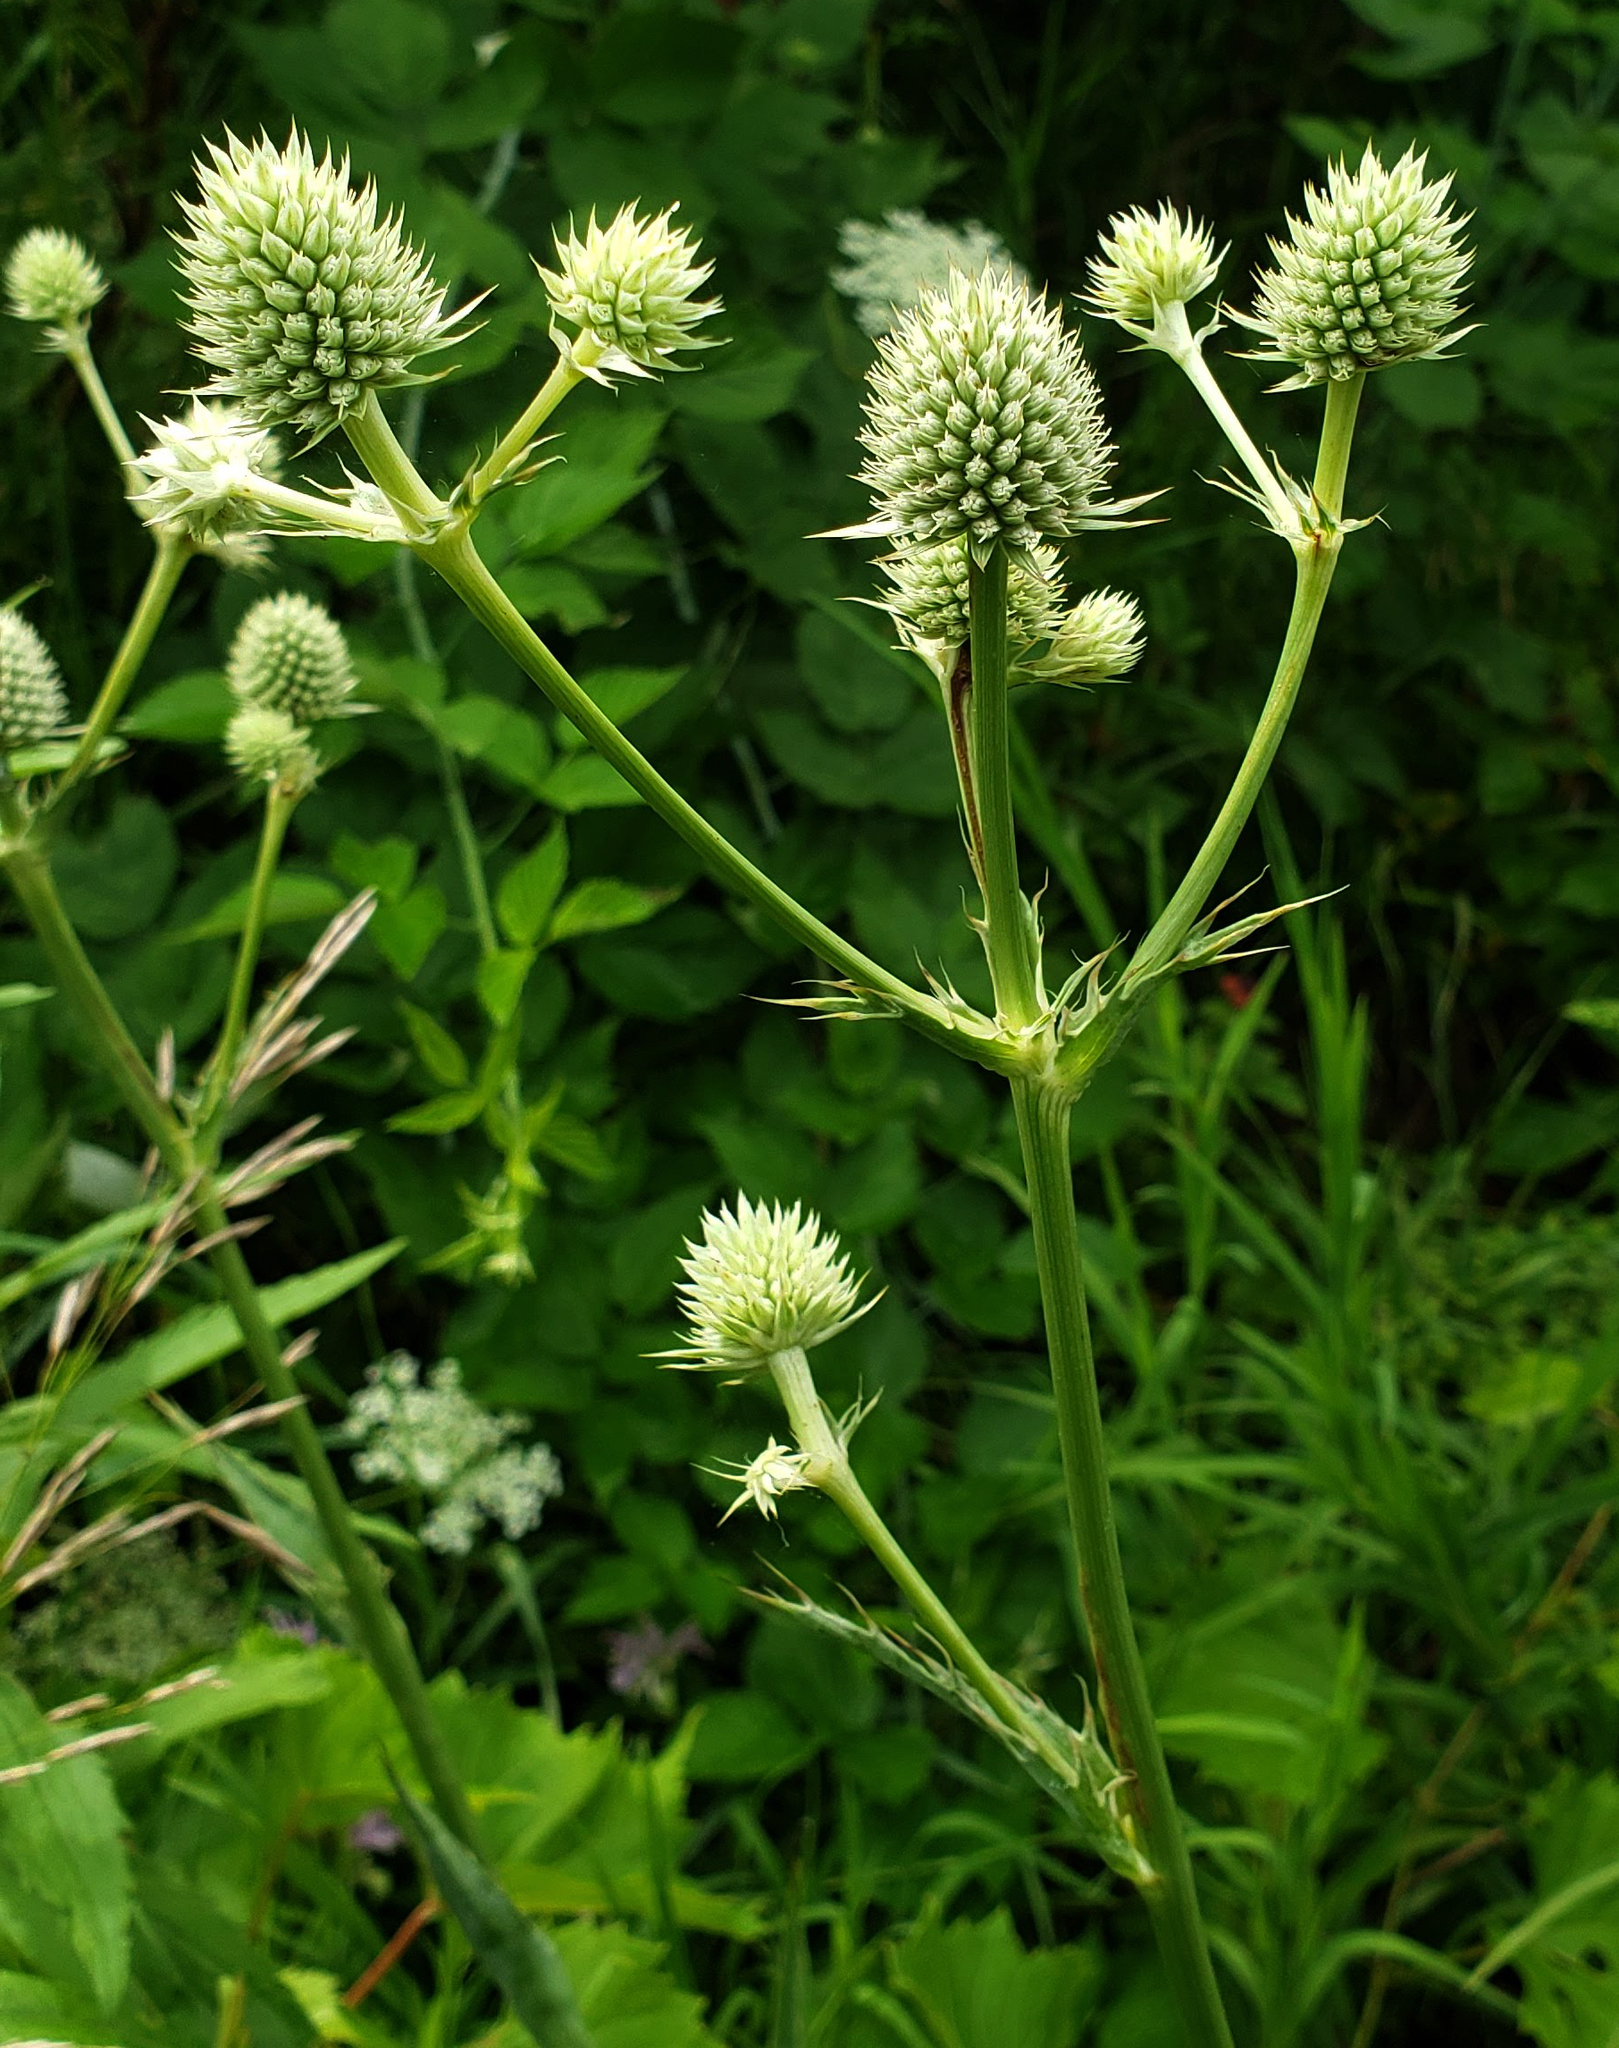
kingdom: Plantae
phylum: Tracheophyta
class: Magnoliopsida
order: Apiales
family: Apiaceae
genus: Eryngium
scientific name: Eryngium yuccifolium
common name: Button eryngo
